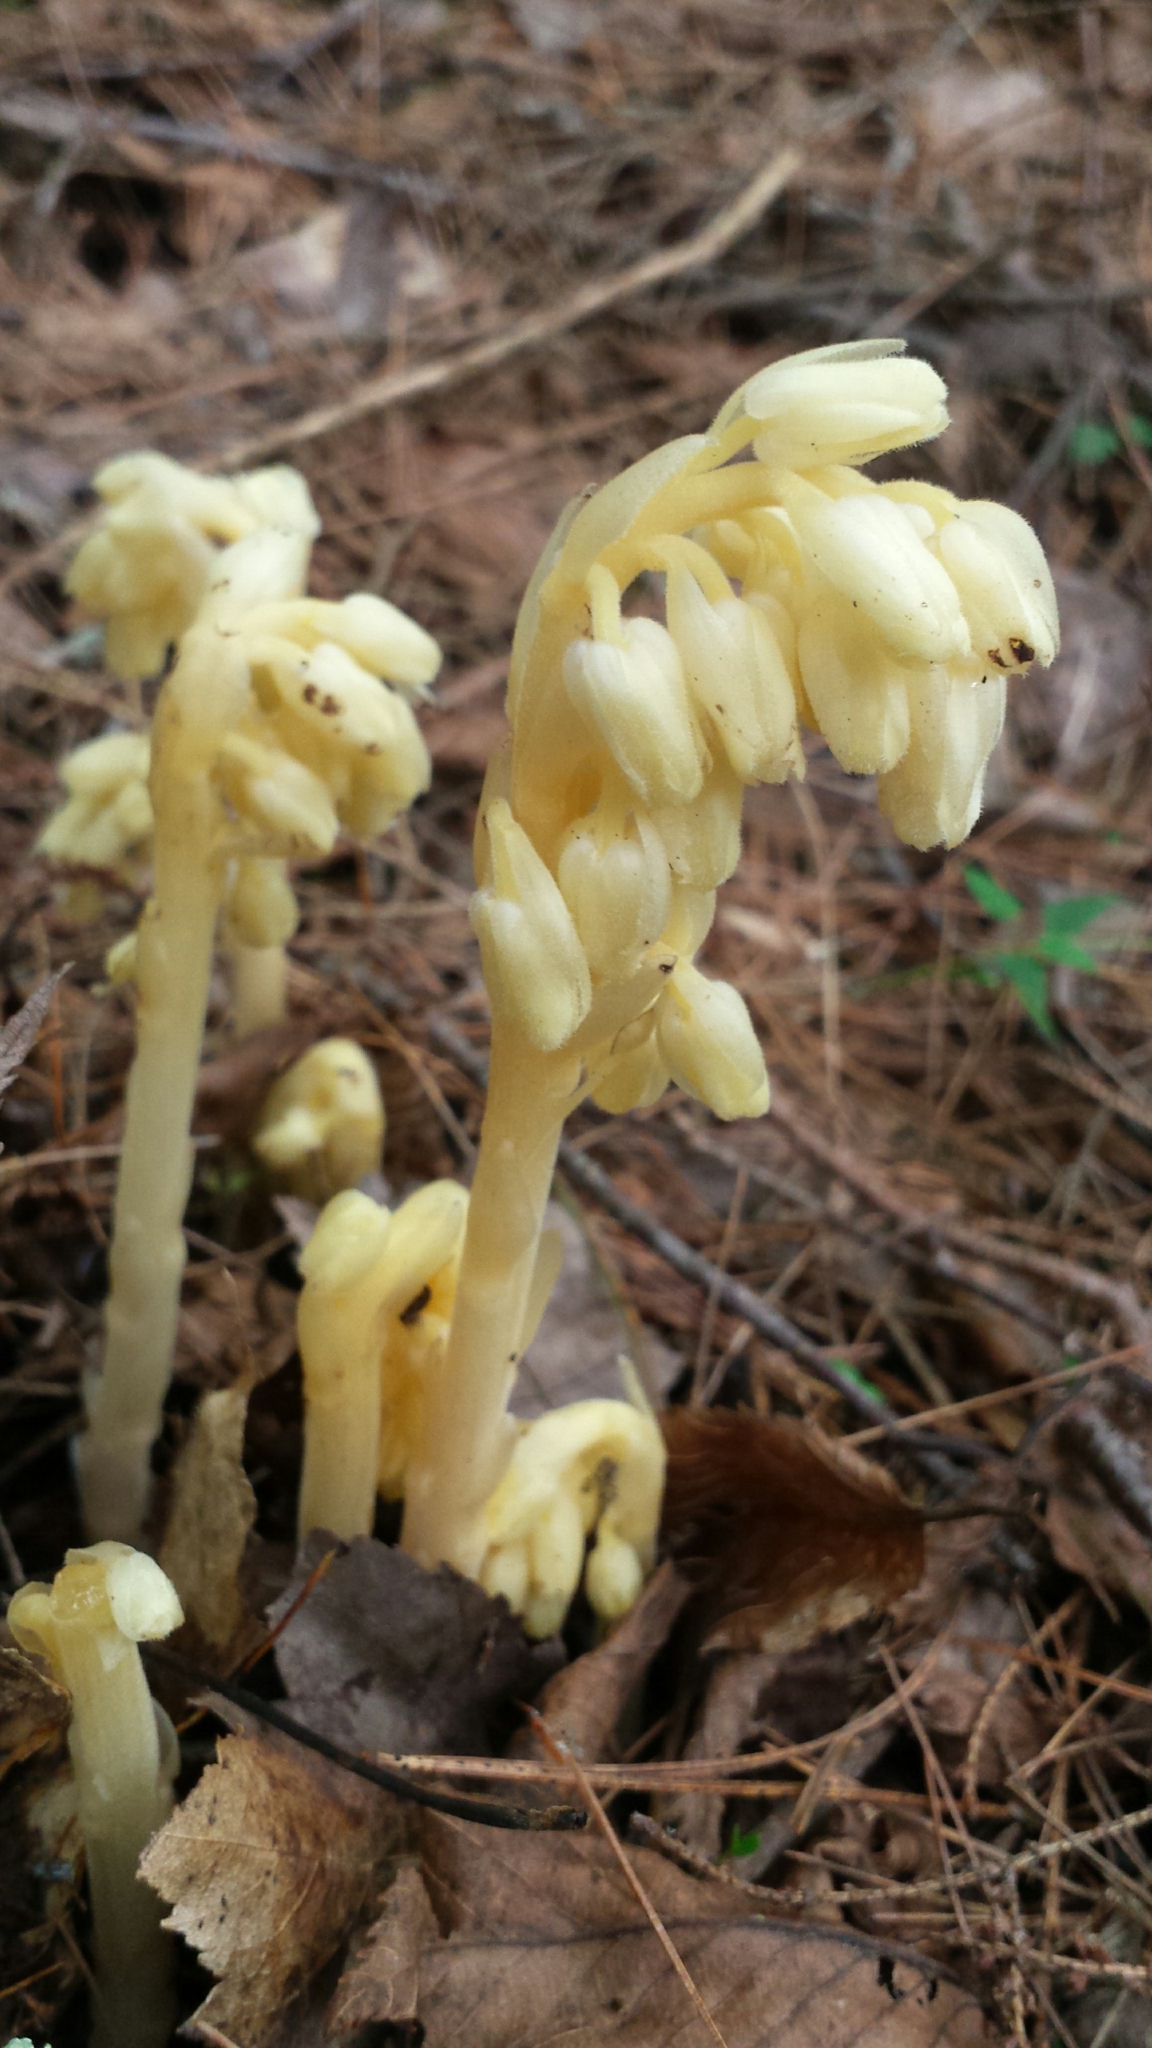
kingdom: Plantae
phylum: Tracheophyta
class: Magnoliopsida
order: Ericales
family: Ericaceae
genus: Hypopitys
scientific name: Hypopitys monotropa
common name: Yellow bird's-nest
